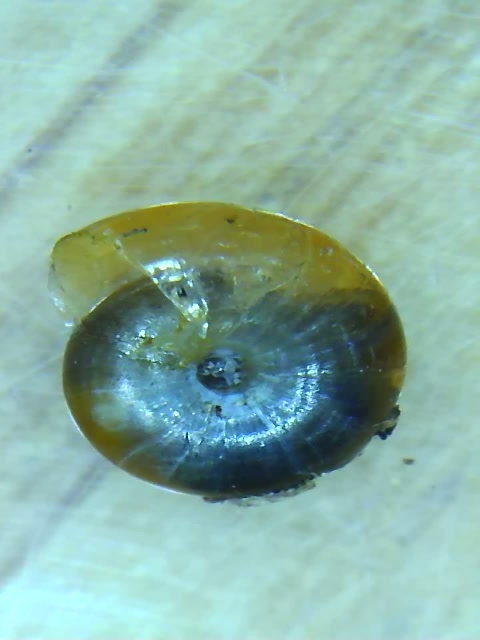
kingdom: Animalia
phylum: Mollusca
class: Gastropoda
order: Stylommatophora
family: Oxychilidae
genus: Oxychilus
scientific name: Oxychilus
